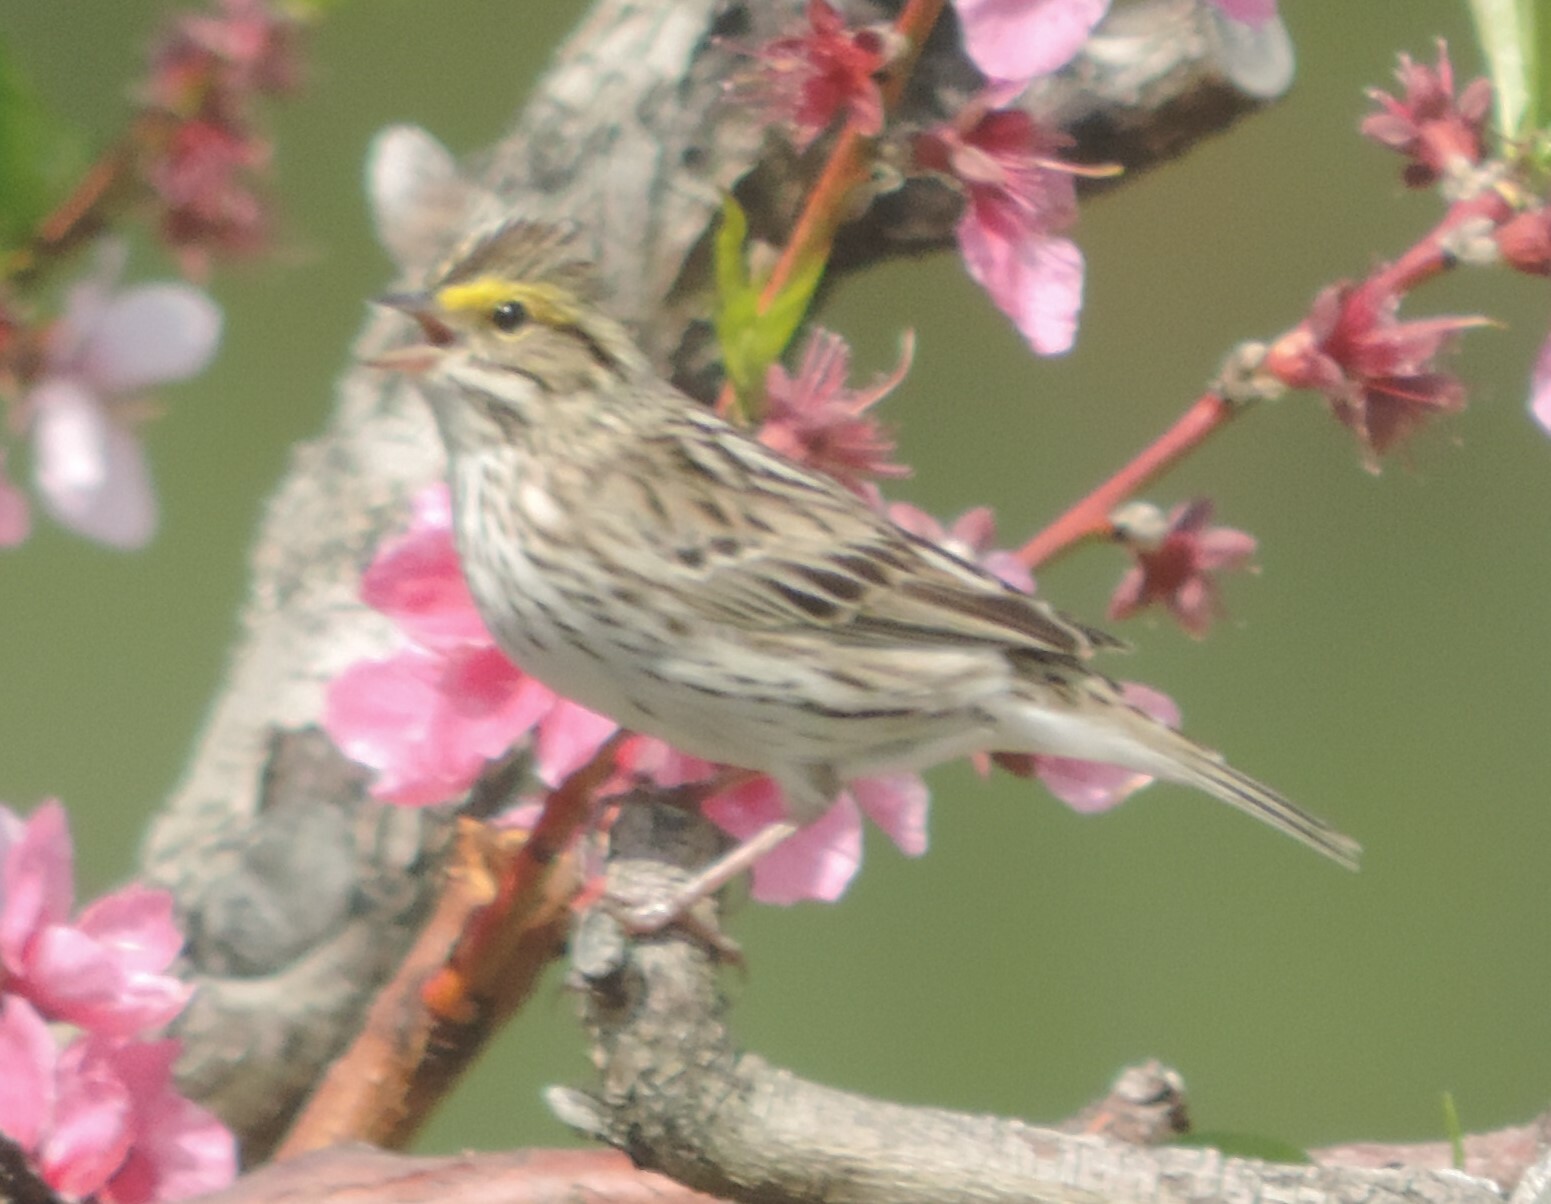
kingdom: Animalia
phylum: Chordata
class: Aves
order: Passeriformes
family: Passerellidae
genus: Passerculus
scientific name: Passerculus sandwichensis
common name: Savannah sparrow
